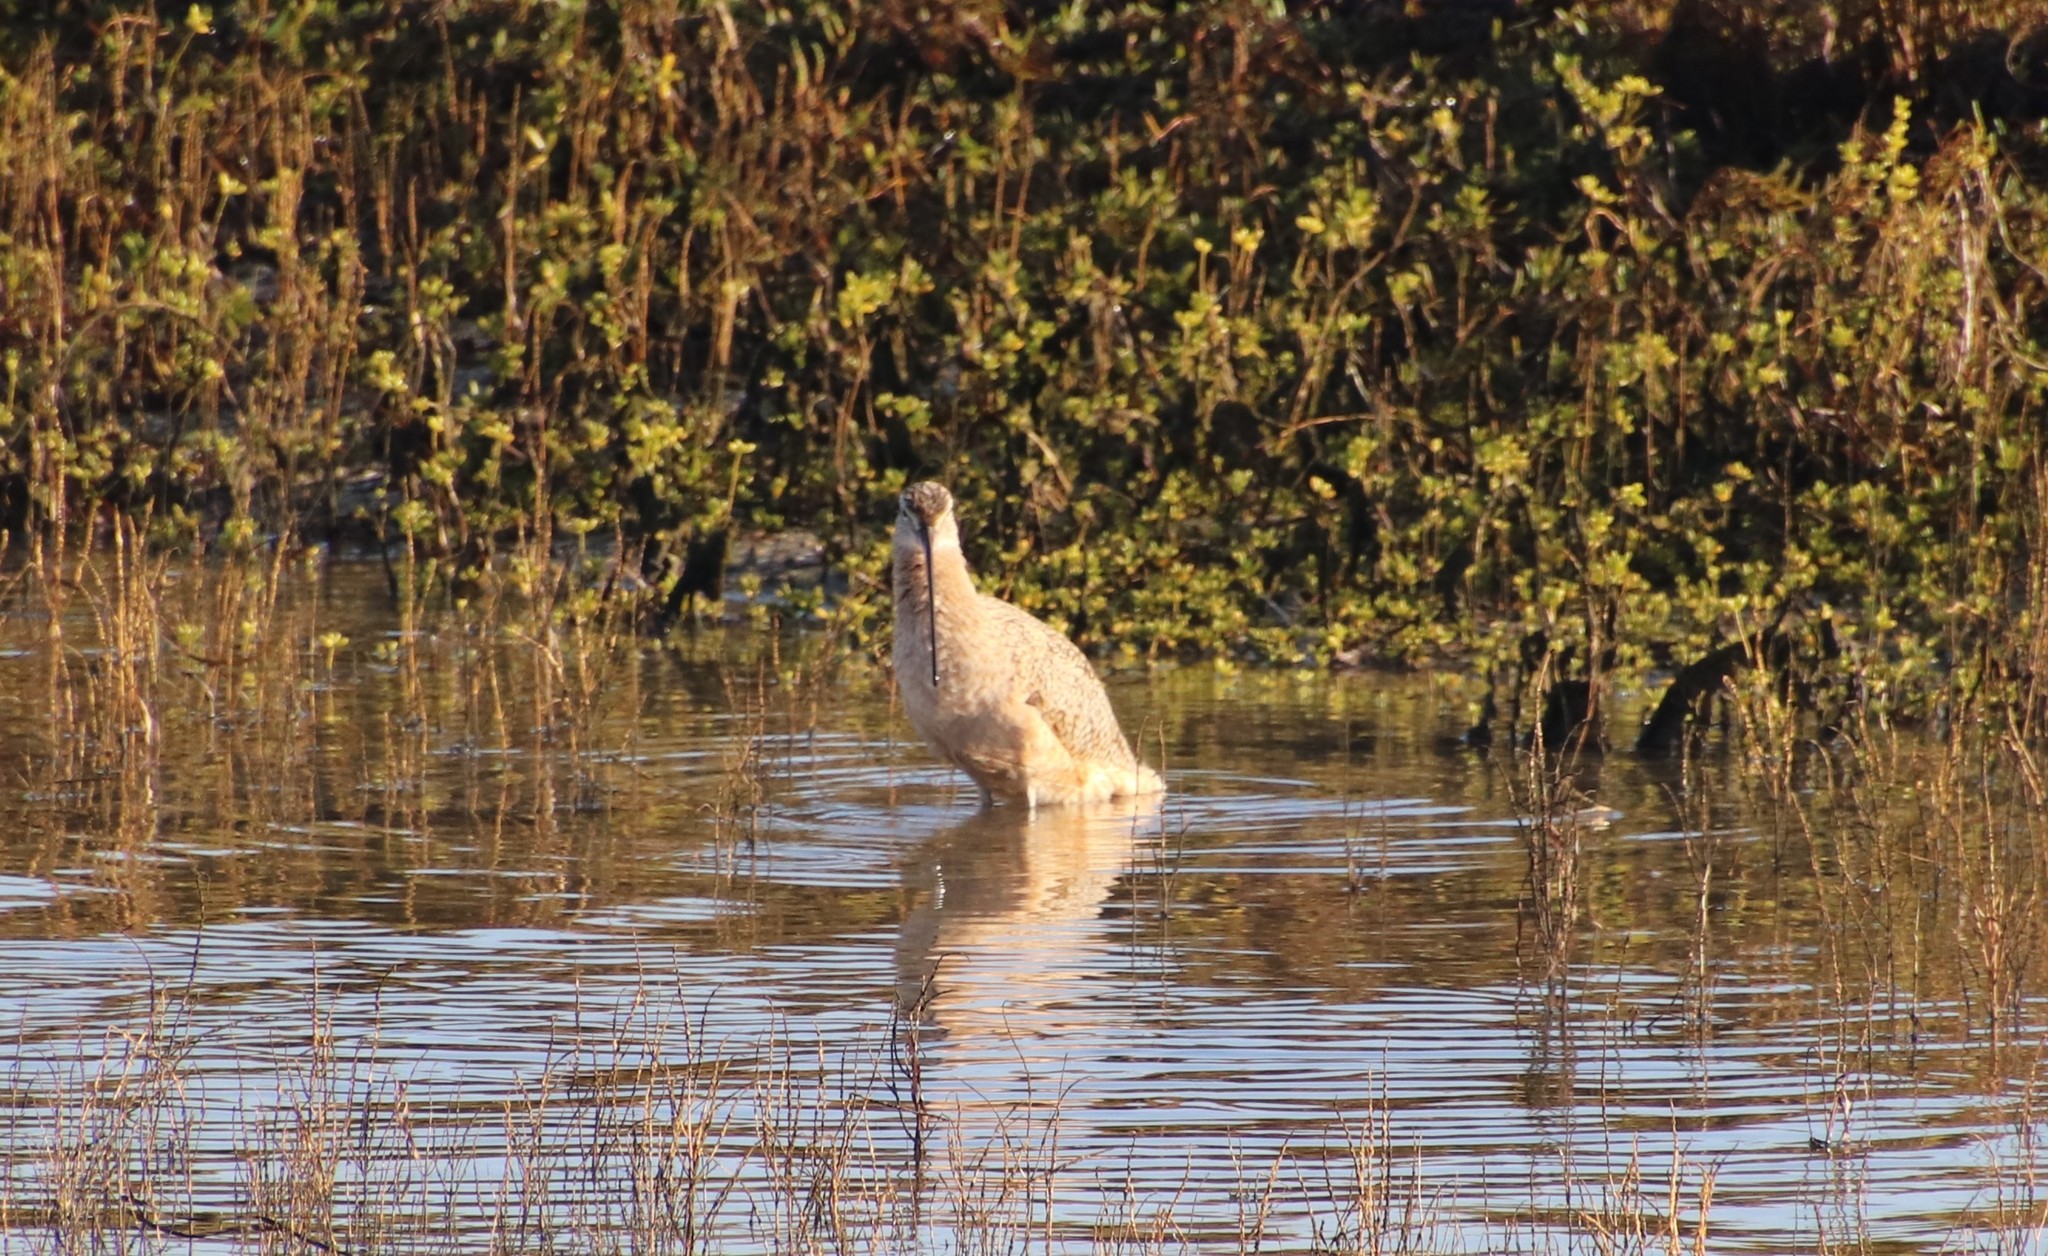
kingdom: Animalia
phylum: Chordata
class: Aves
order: Charadriiformes
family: Scolopacidae
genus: Numenius
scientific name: Numenius americanus
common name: Long-billed curlew
